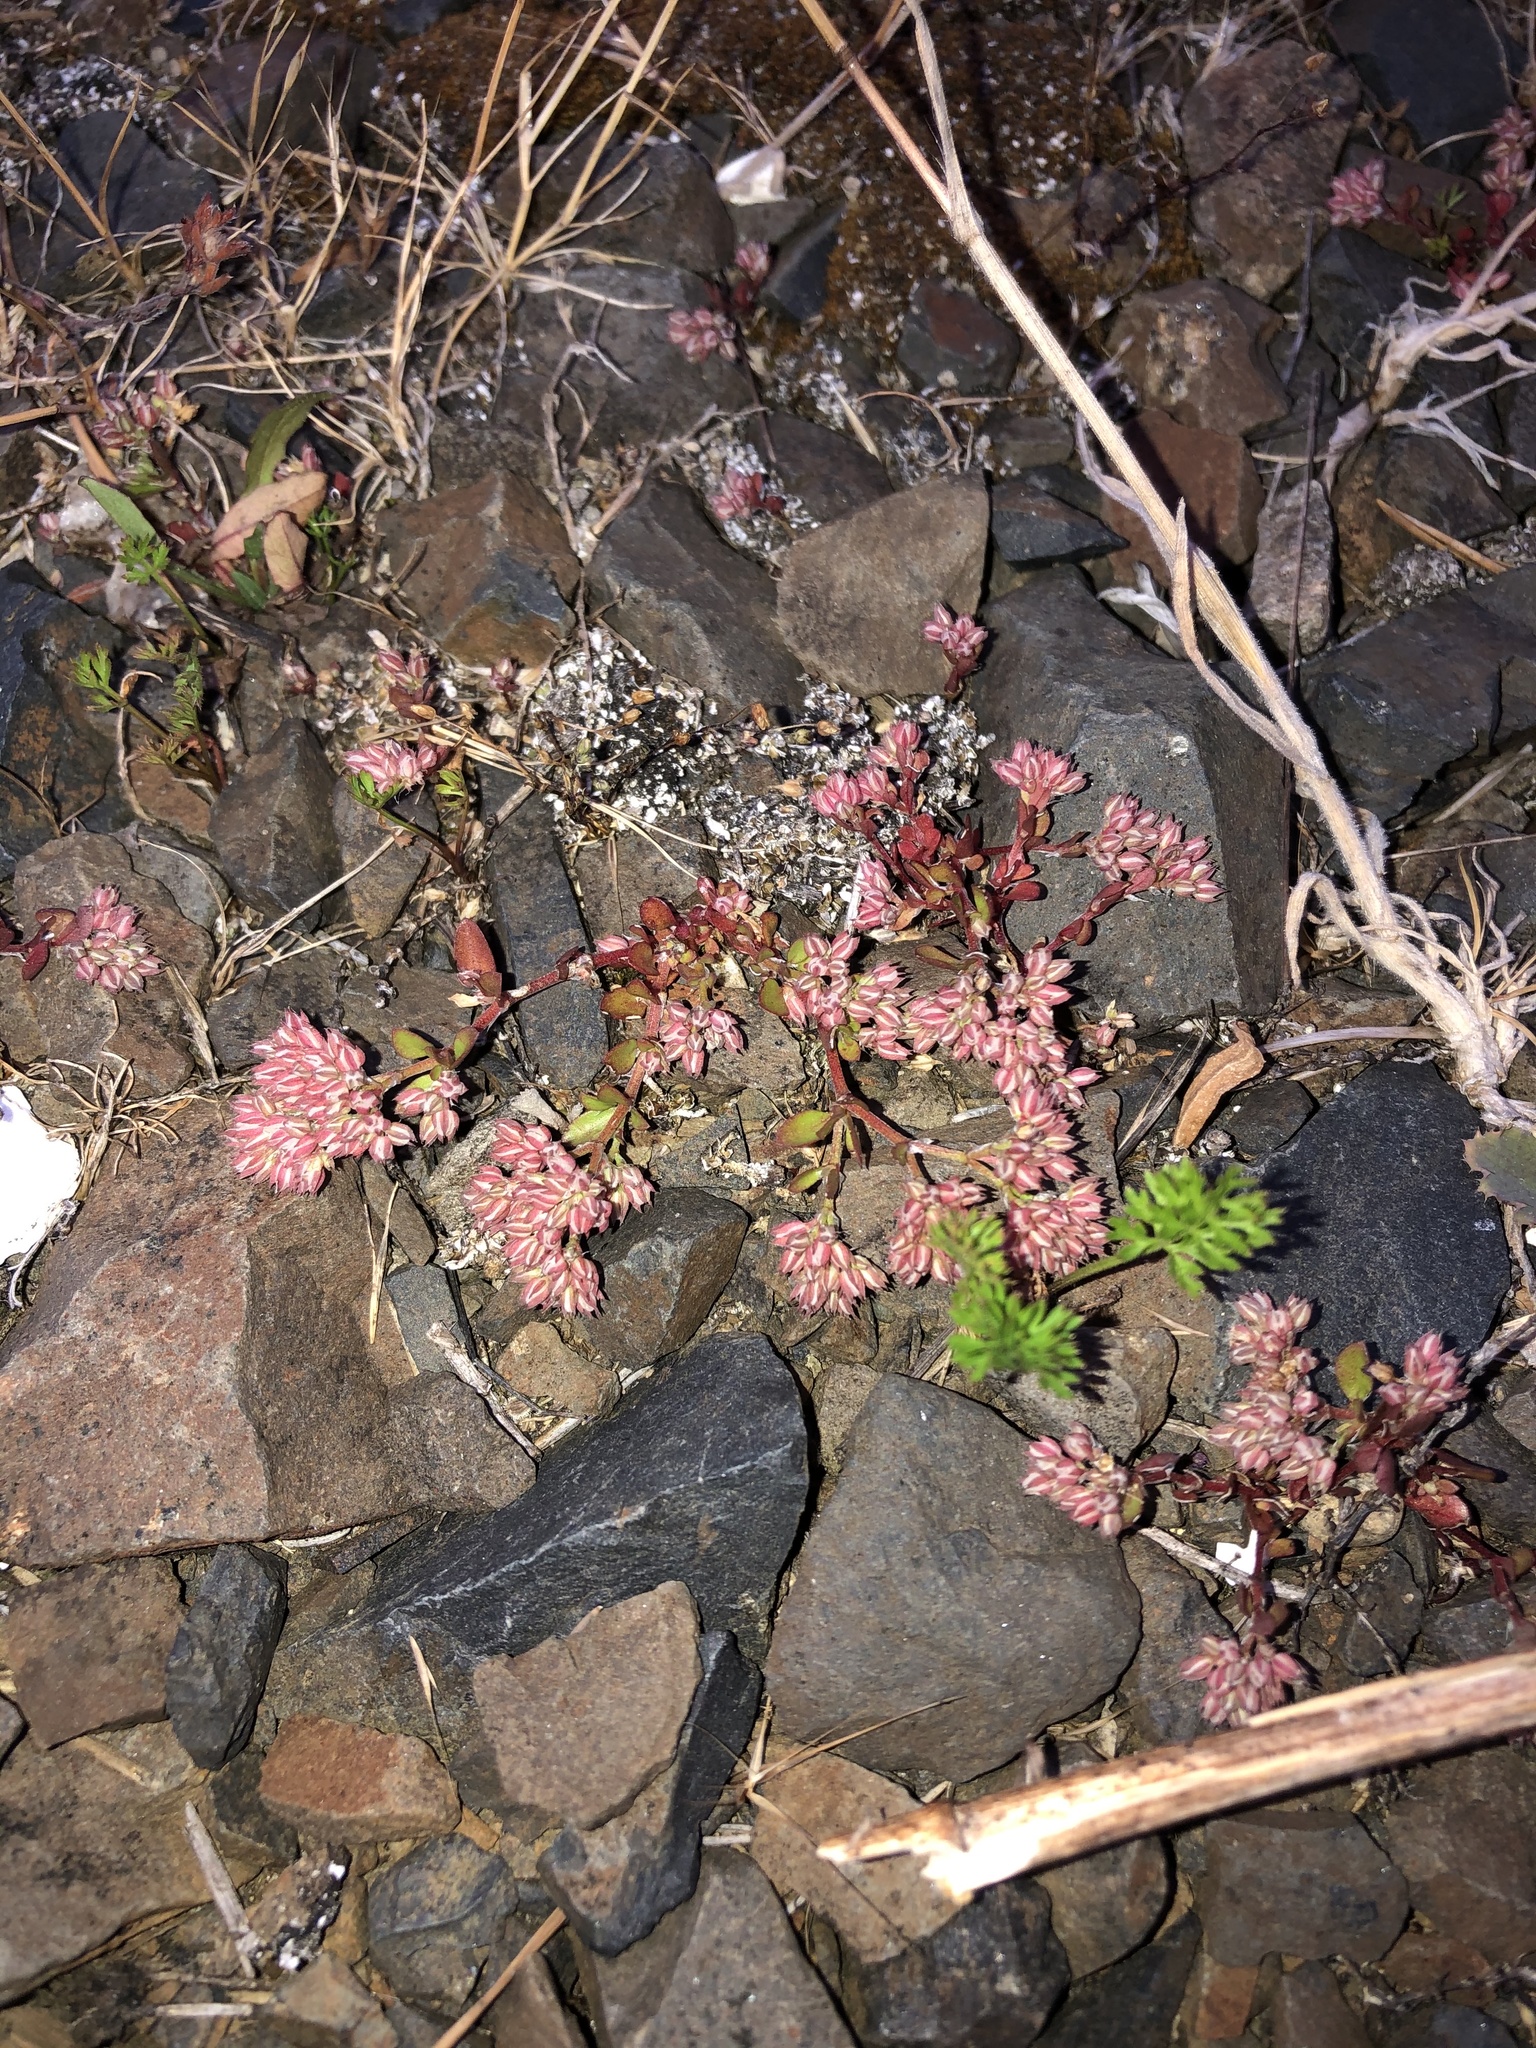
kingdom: Plantae
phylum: Tracheophyta
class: Magnoliopsida
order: Caryophyllales
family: Caryophyllaceae
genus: Polycarpon
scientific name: Polycarpon tetraphyllum
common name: Four-leaved all-seed
